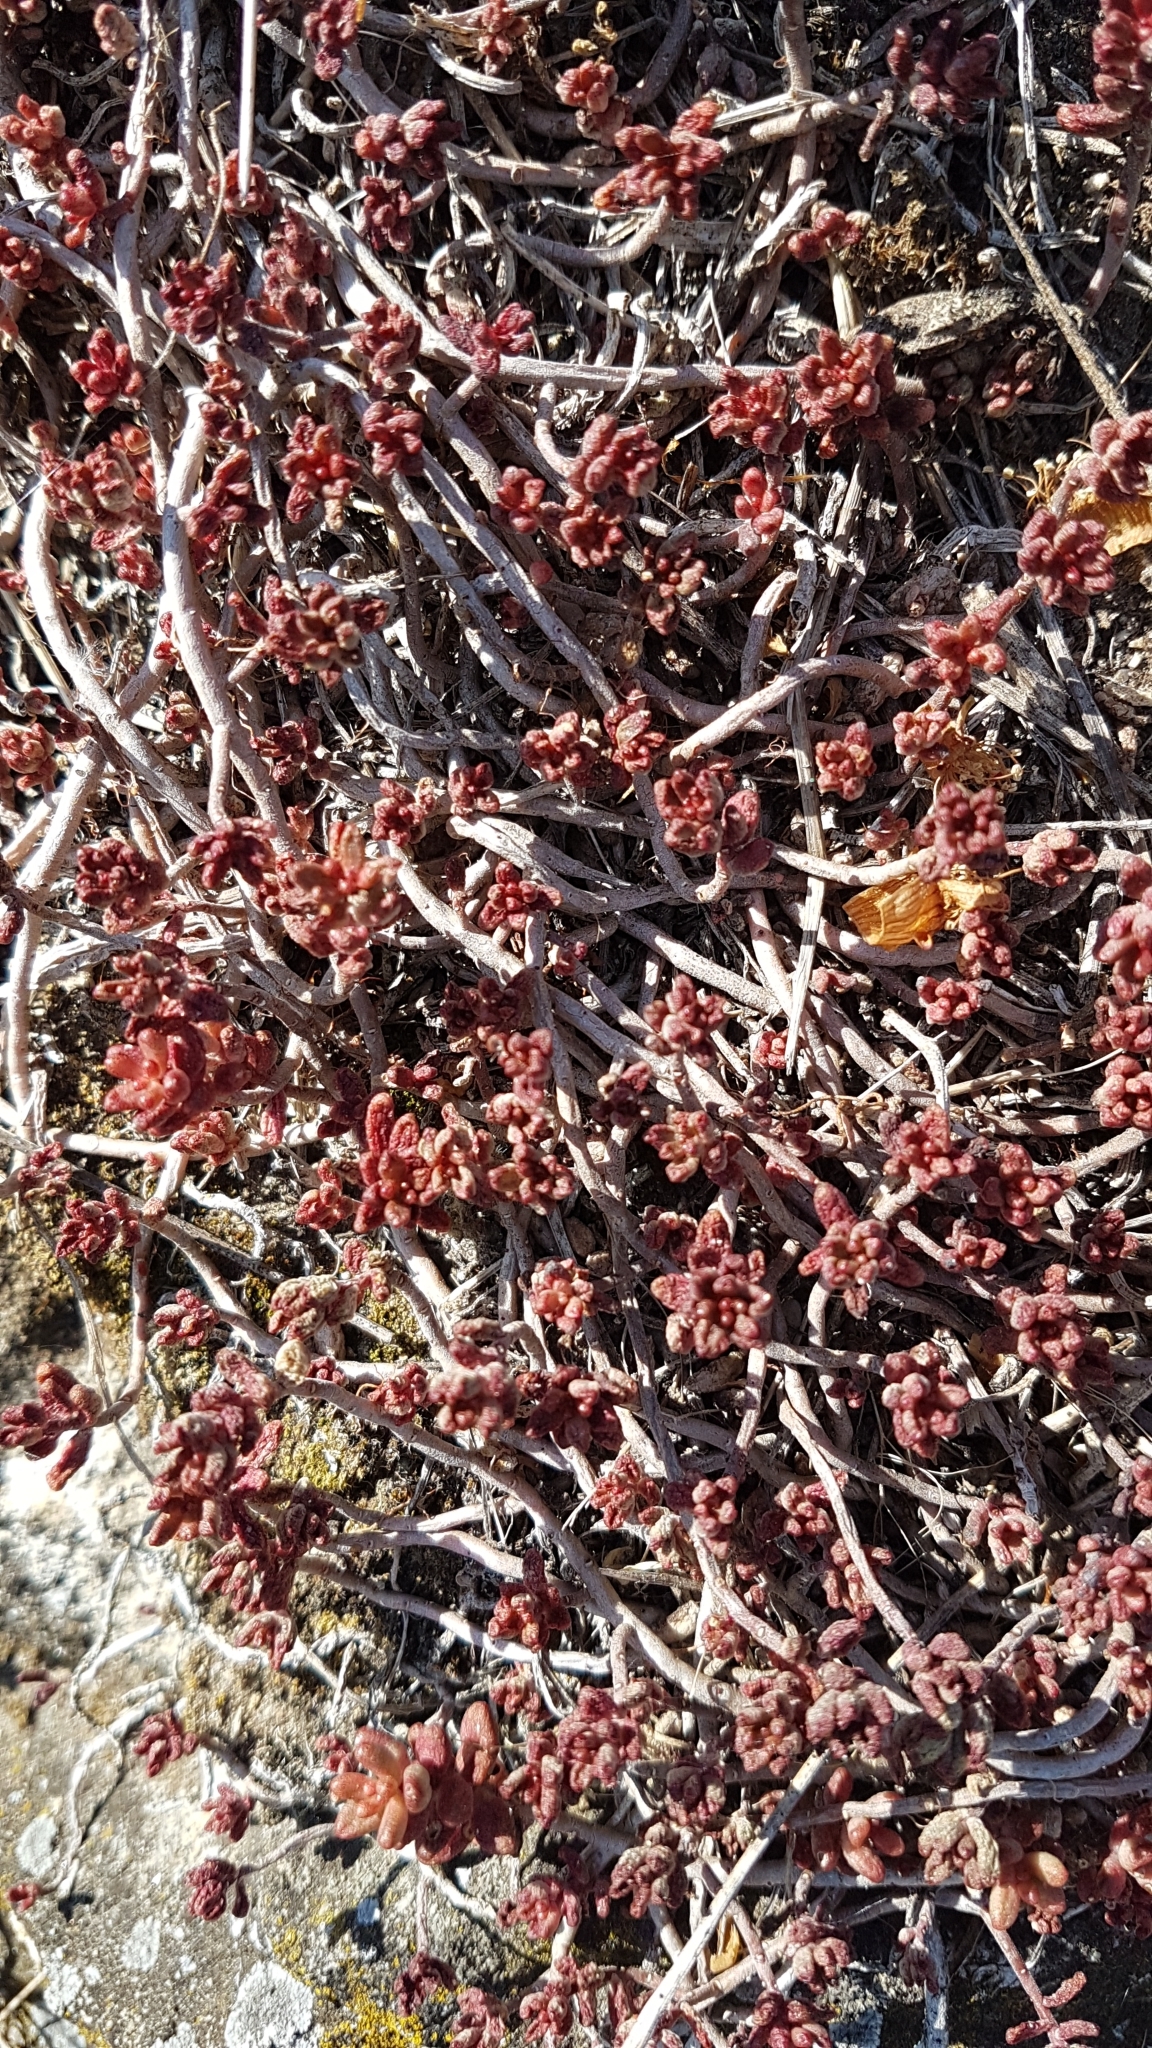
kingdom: Plantae
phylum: Tracheophyta
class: Magnoliopsida
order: Saxifragales
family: Crassulaceae
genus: Sedum
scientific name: Sedum album
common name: White stonecrop
